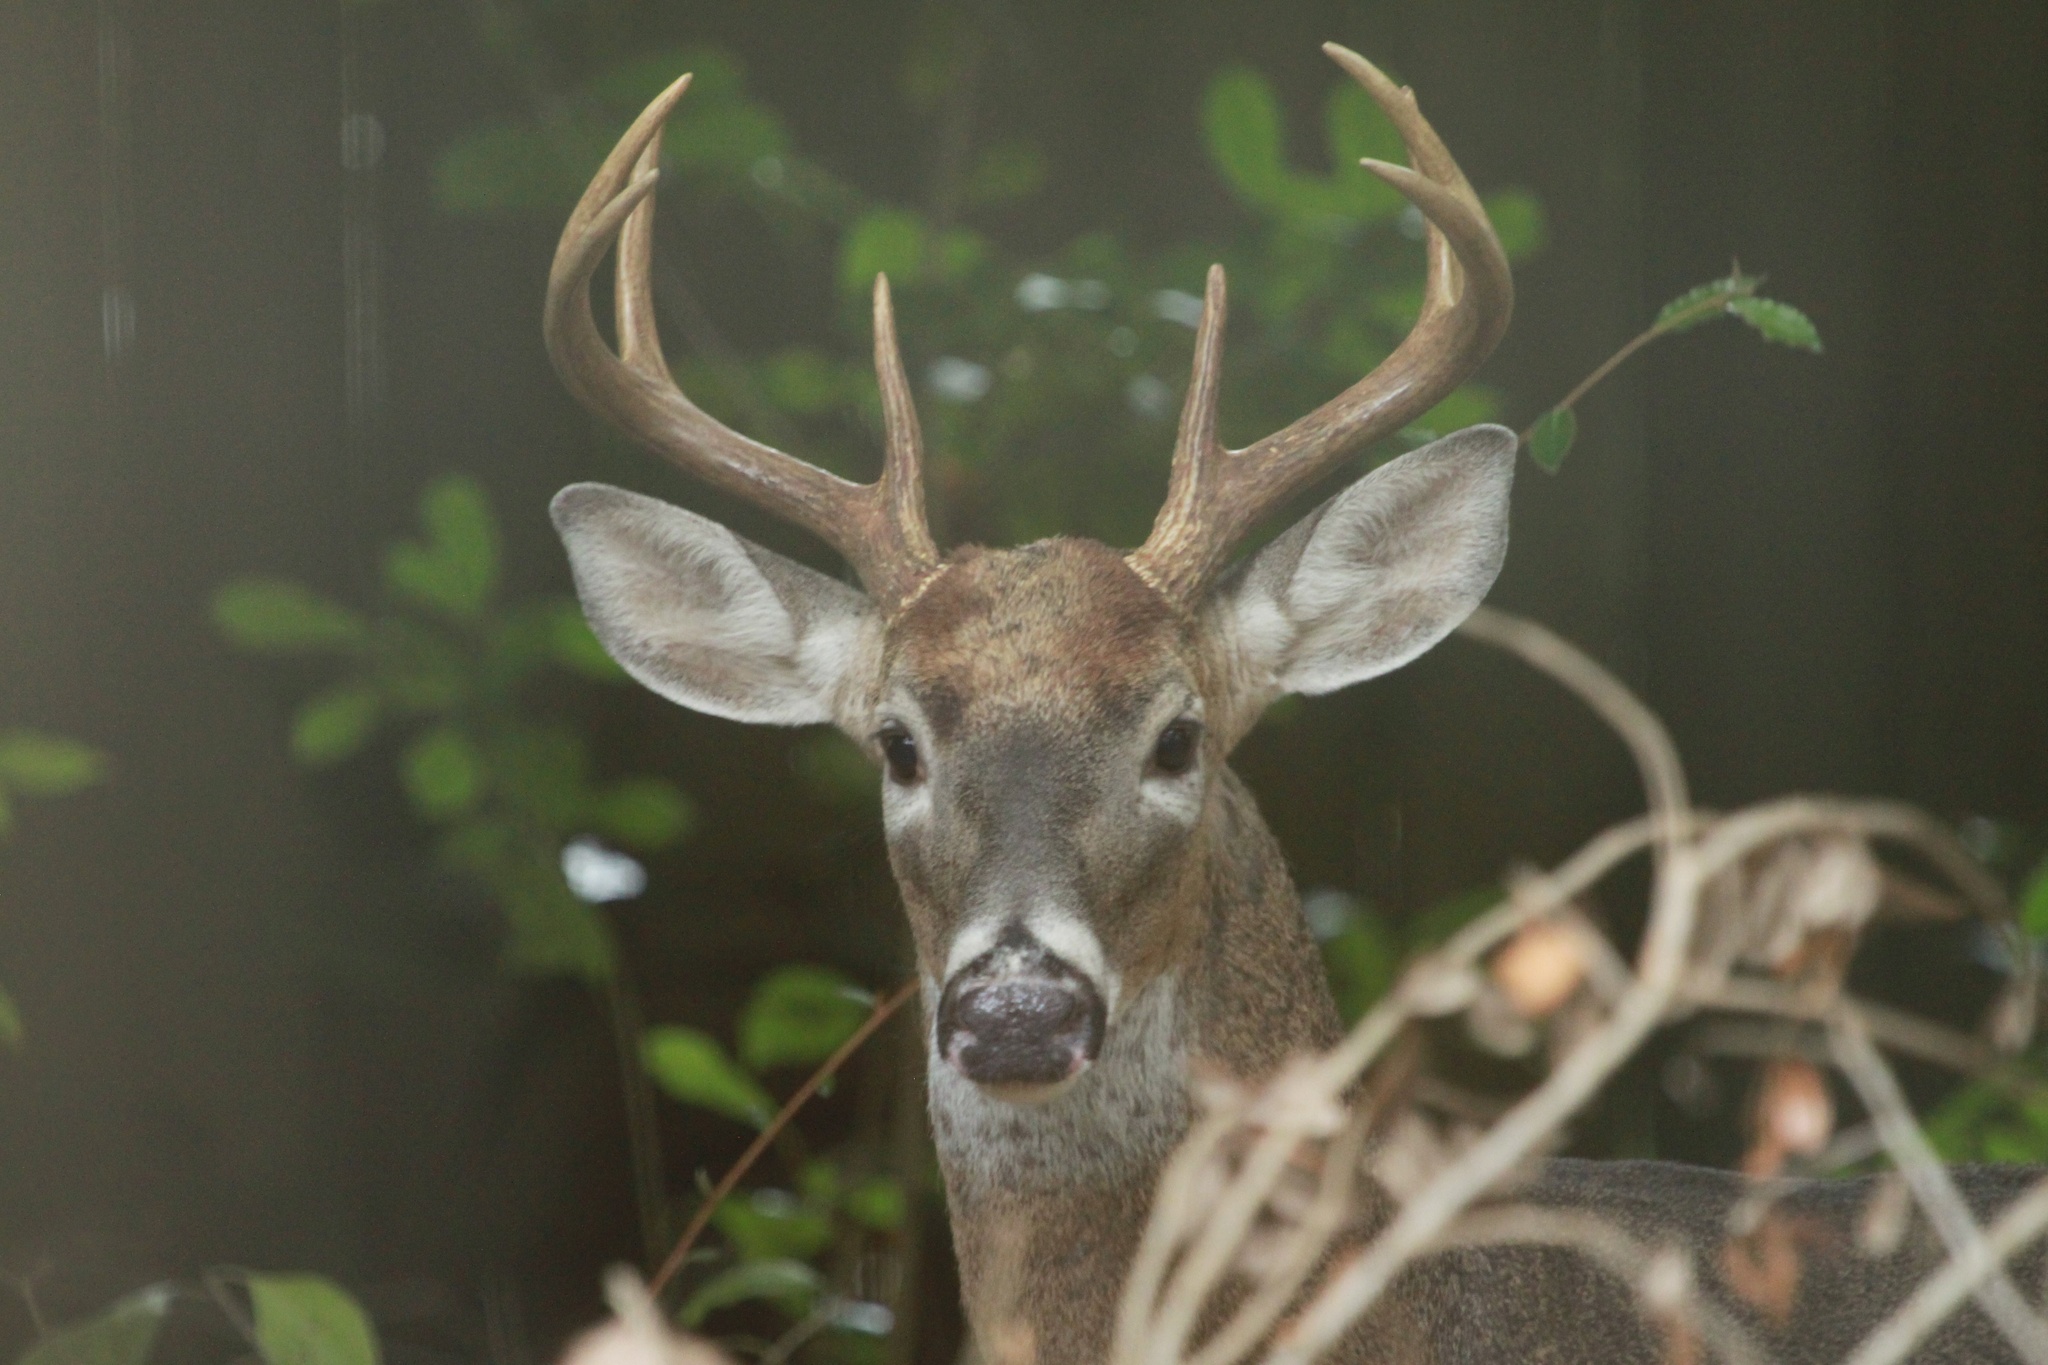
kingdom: Animalia
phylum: Chordata
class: Mammalia
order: Artiodactyla
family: Cervidae
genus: Odocoileus
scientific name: Odocoileus virginianus
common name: White-tailed deer
